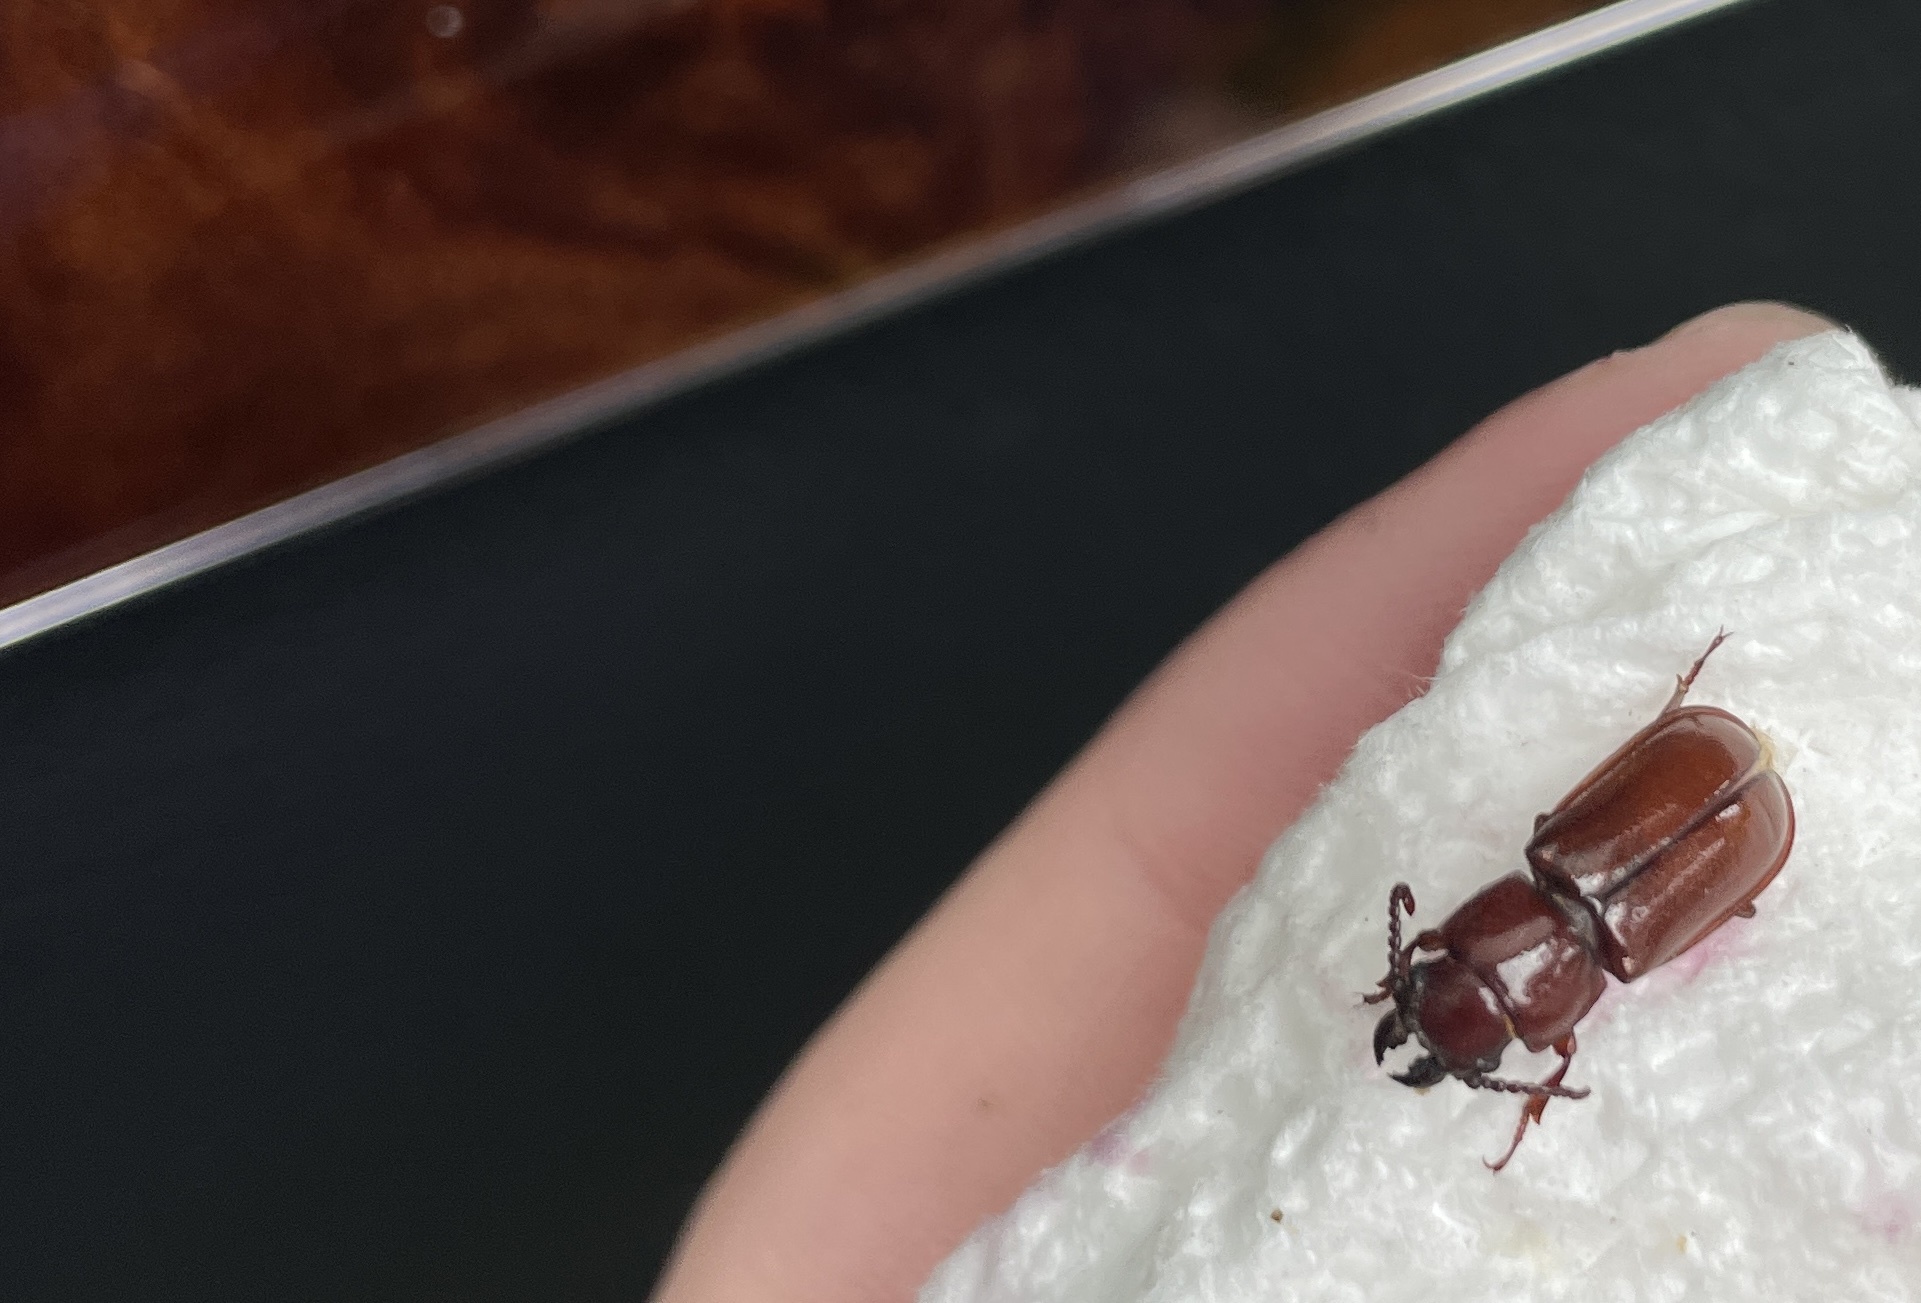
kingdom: Animalia
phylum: Arthropoda
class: Insecta
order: Coleoptera
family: Cerambycidae
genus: Neandra
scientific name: Neandra brunnea
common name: Pole borer
